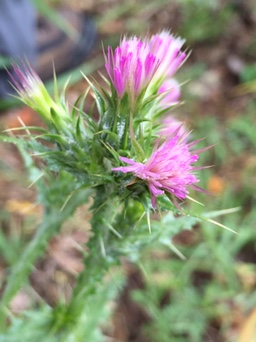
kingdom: Plantae
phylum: Tracheophyta
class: Magnoliopsida
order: Asterales
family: Asteraceae
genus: Carduus
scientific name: Carduus pycnocephalus
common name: Plymouth thistle
